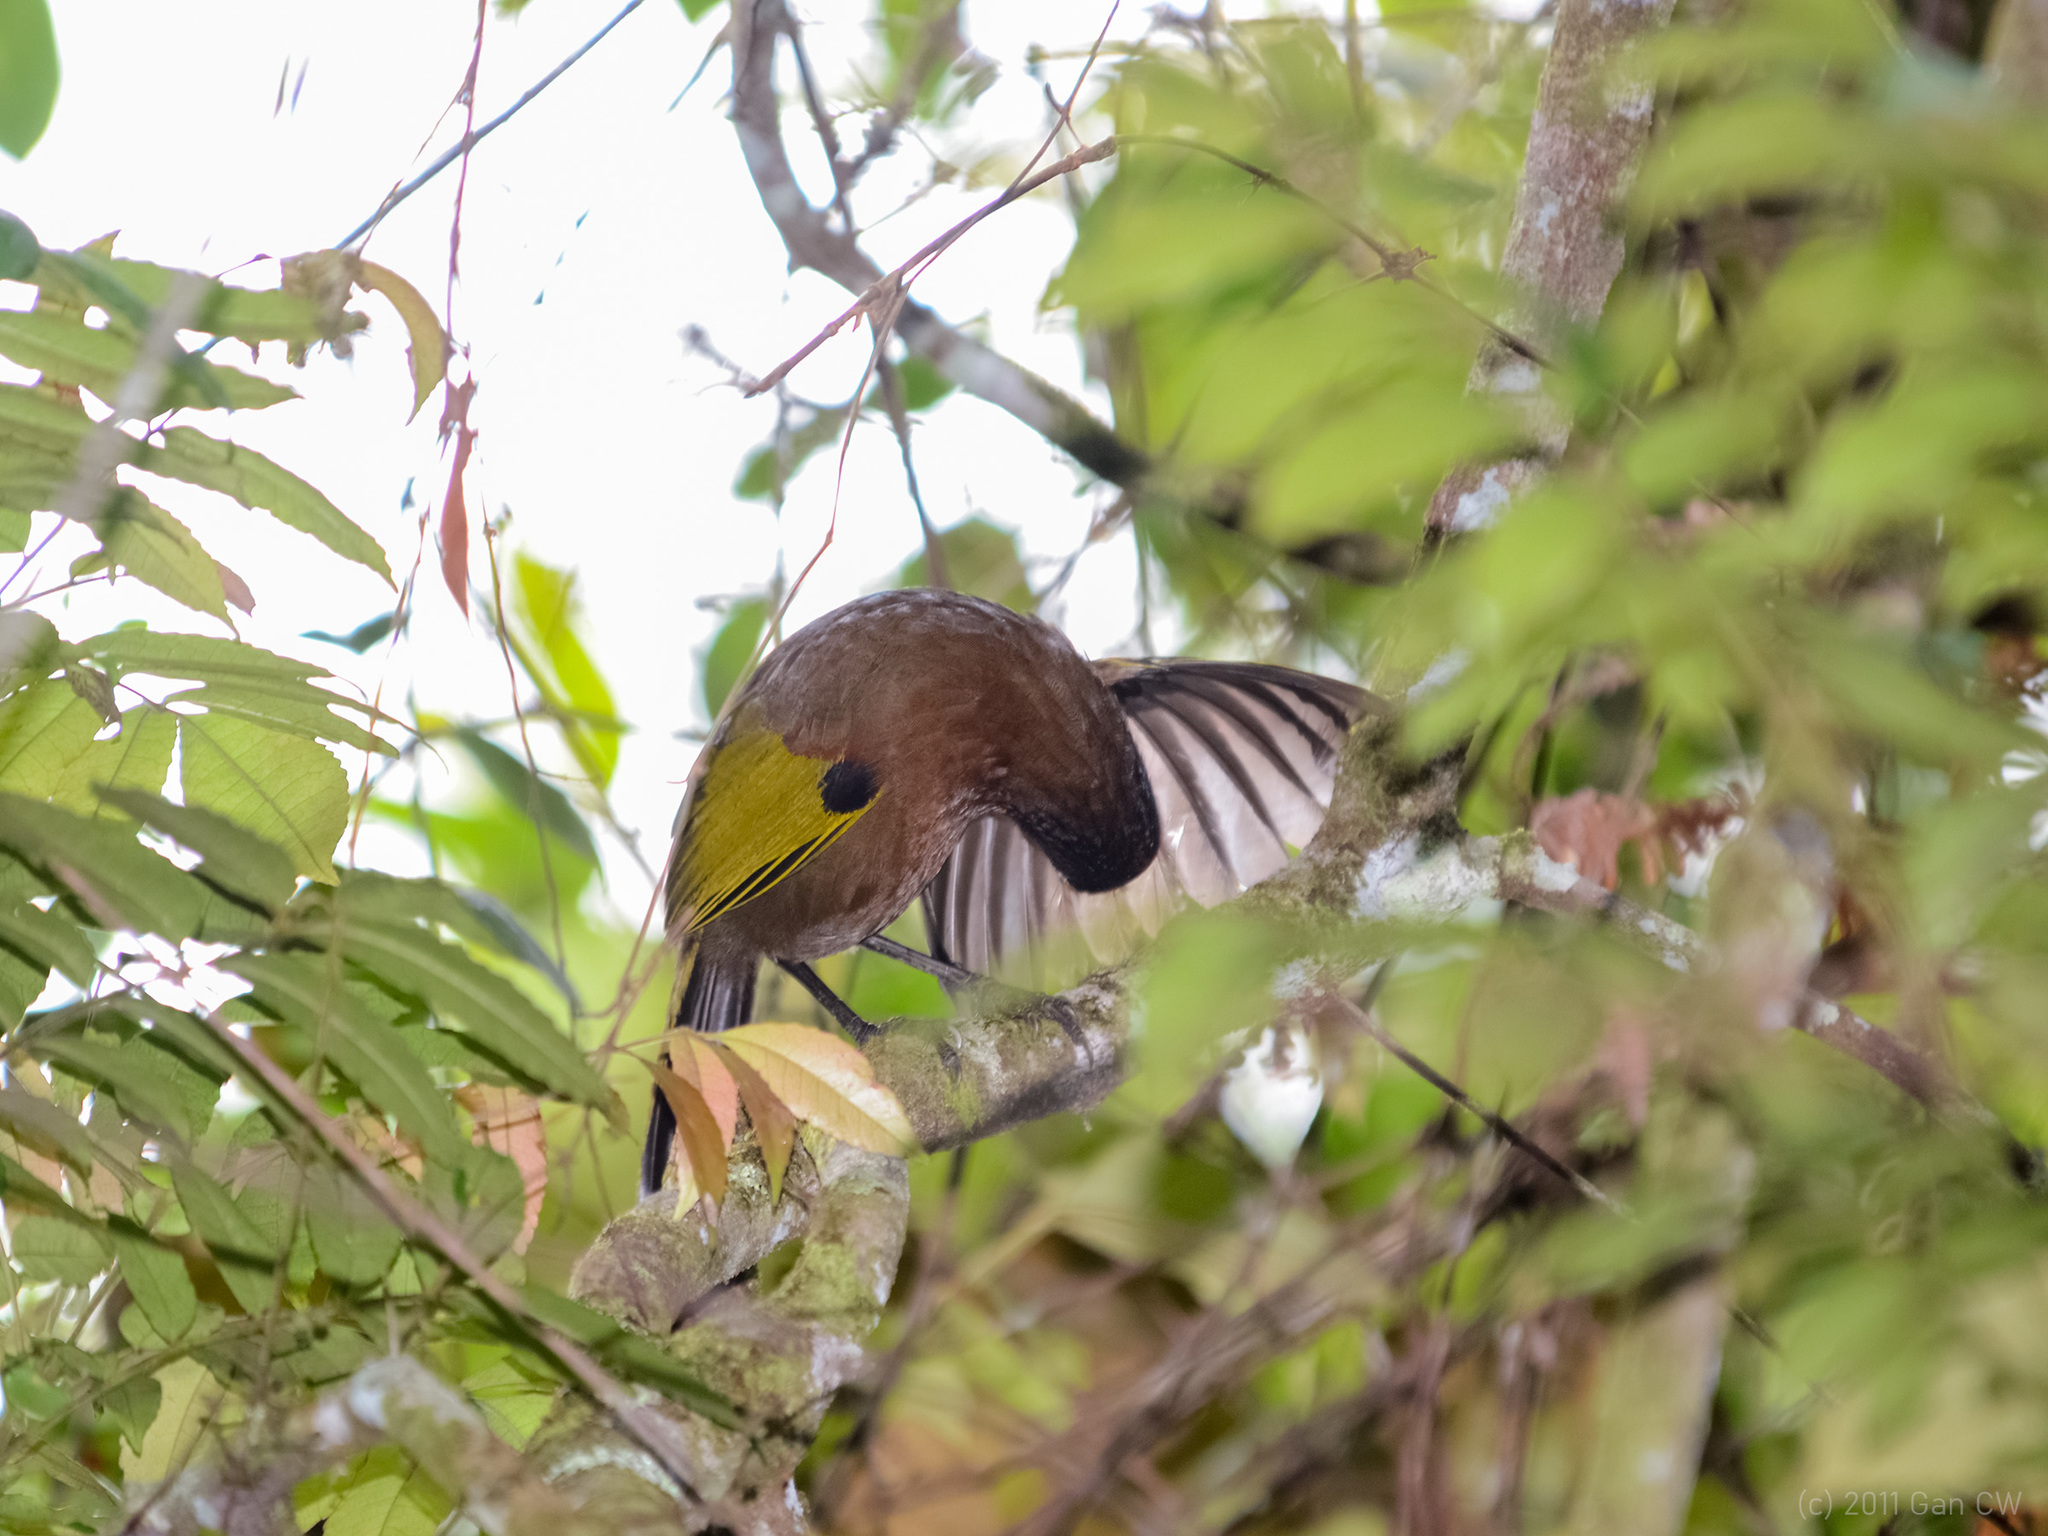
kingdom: Animalia
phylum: Chordata
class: Aves
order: Passeriformes
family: Leiothrichidae
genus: Trochalopteron
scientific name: Trochalopteron peninsulae
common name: Malayan laughingthrush
